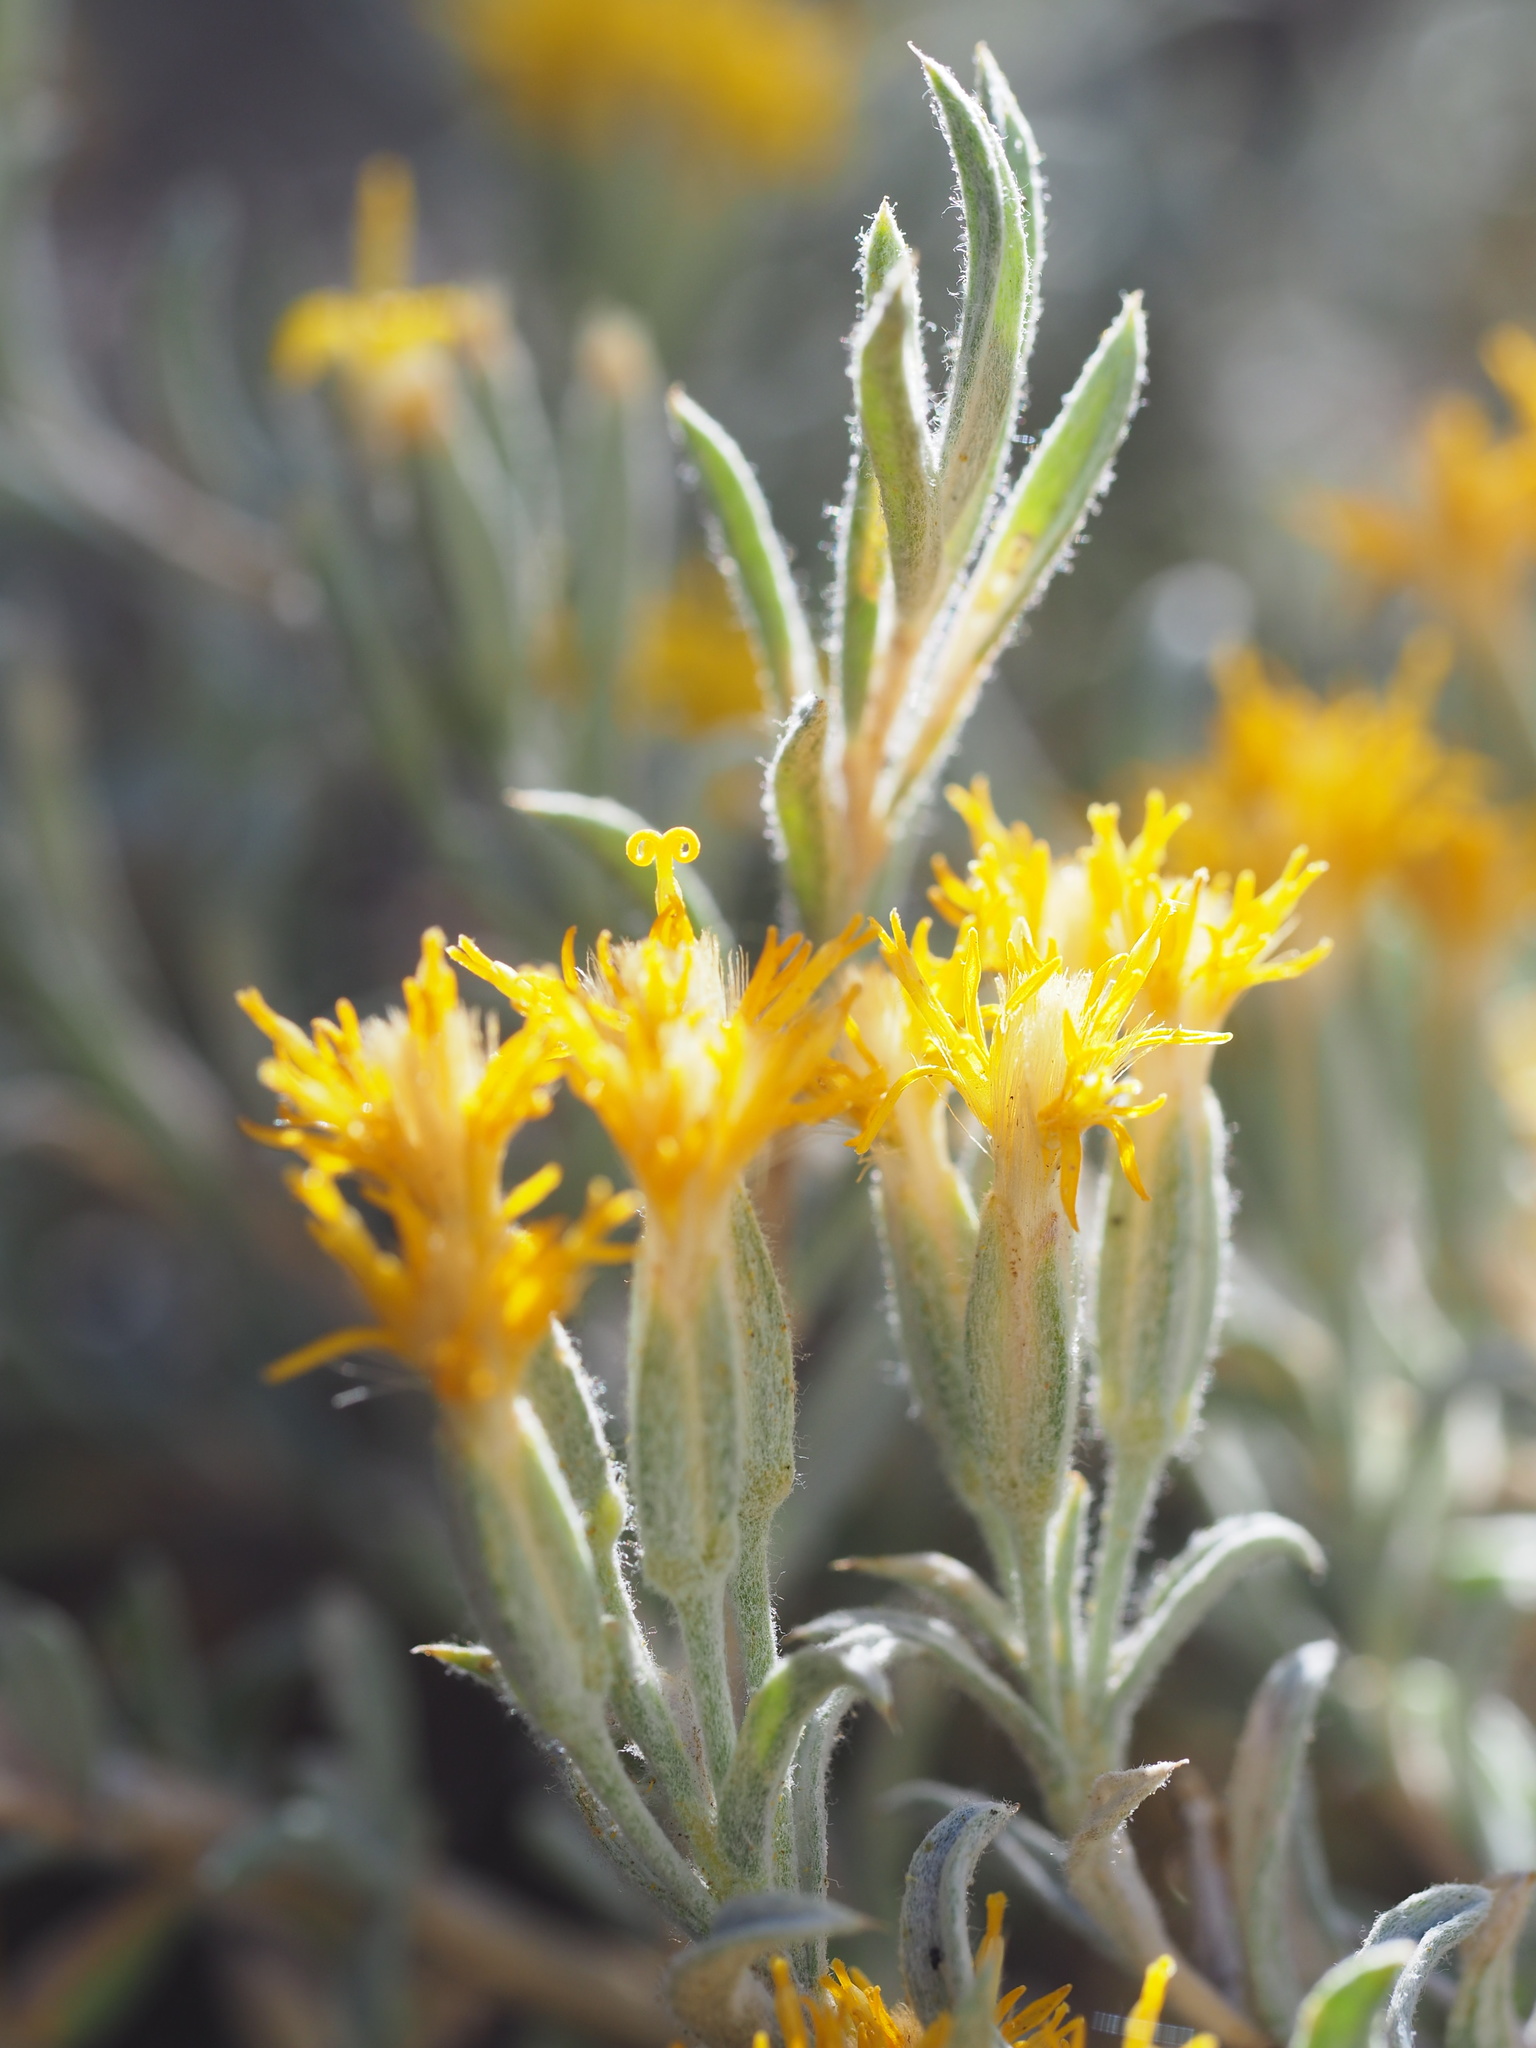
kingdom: Plantae
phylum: Tracheophyta
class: Magnoliopsida
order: Asterales
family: Asteraceae
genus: Tetradymia
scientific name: Tetradymia canescens
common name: Spineless horsebrush
